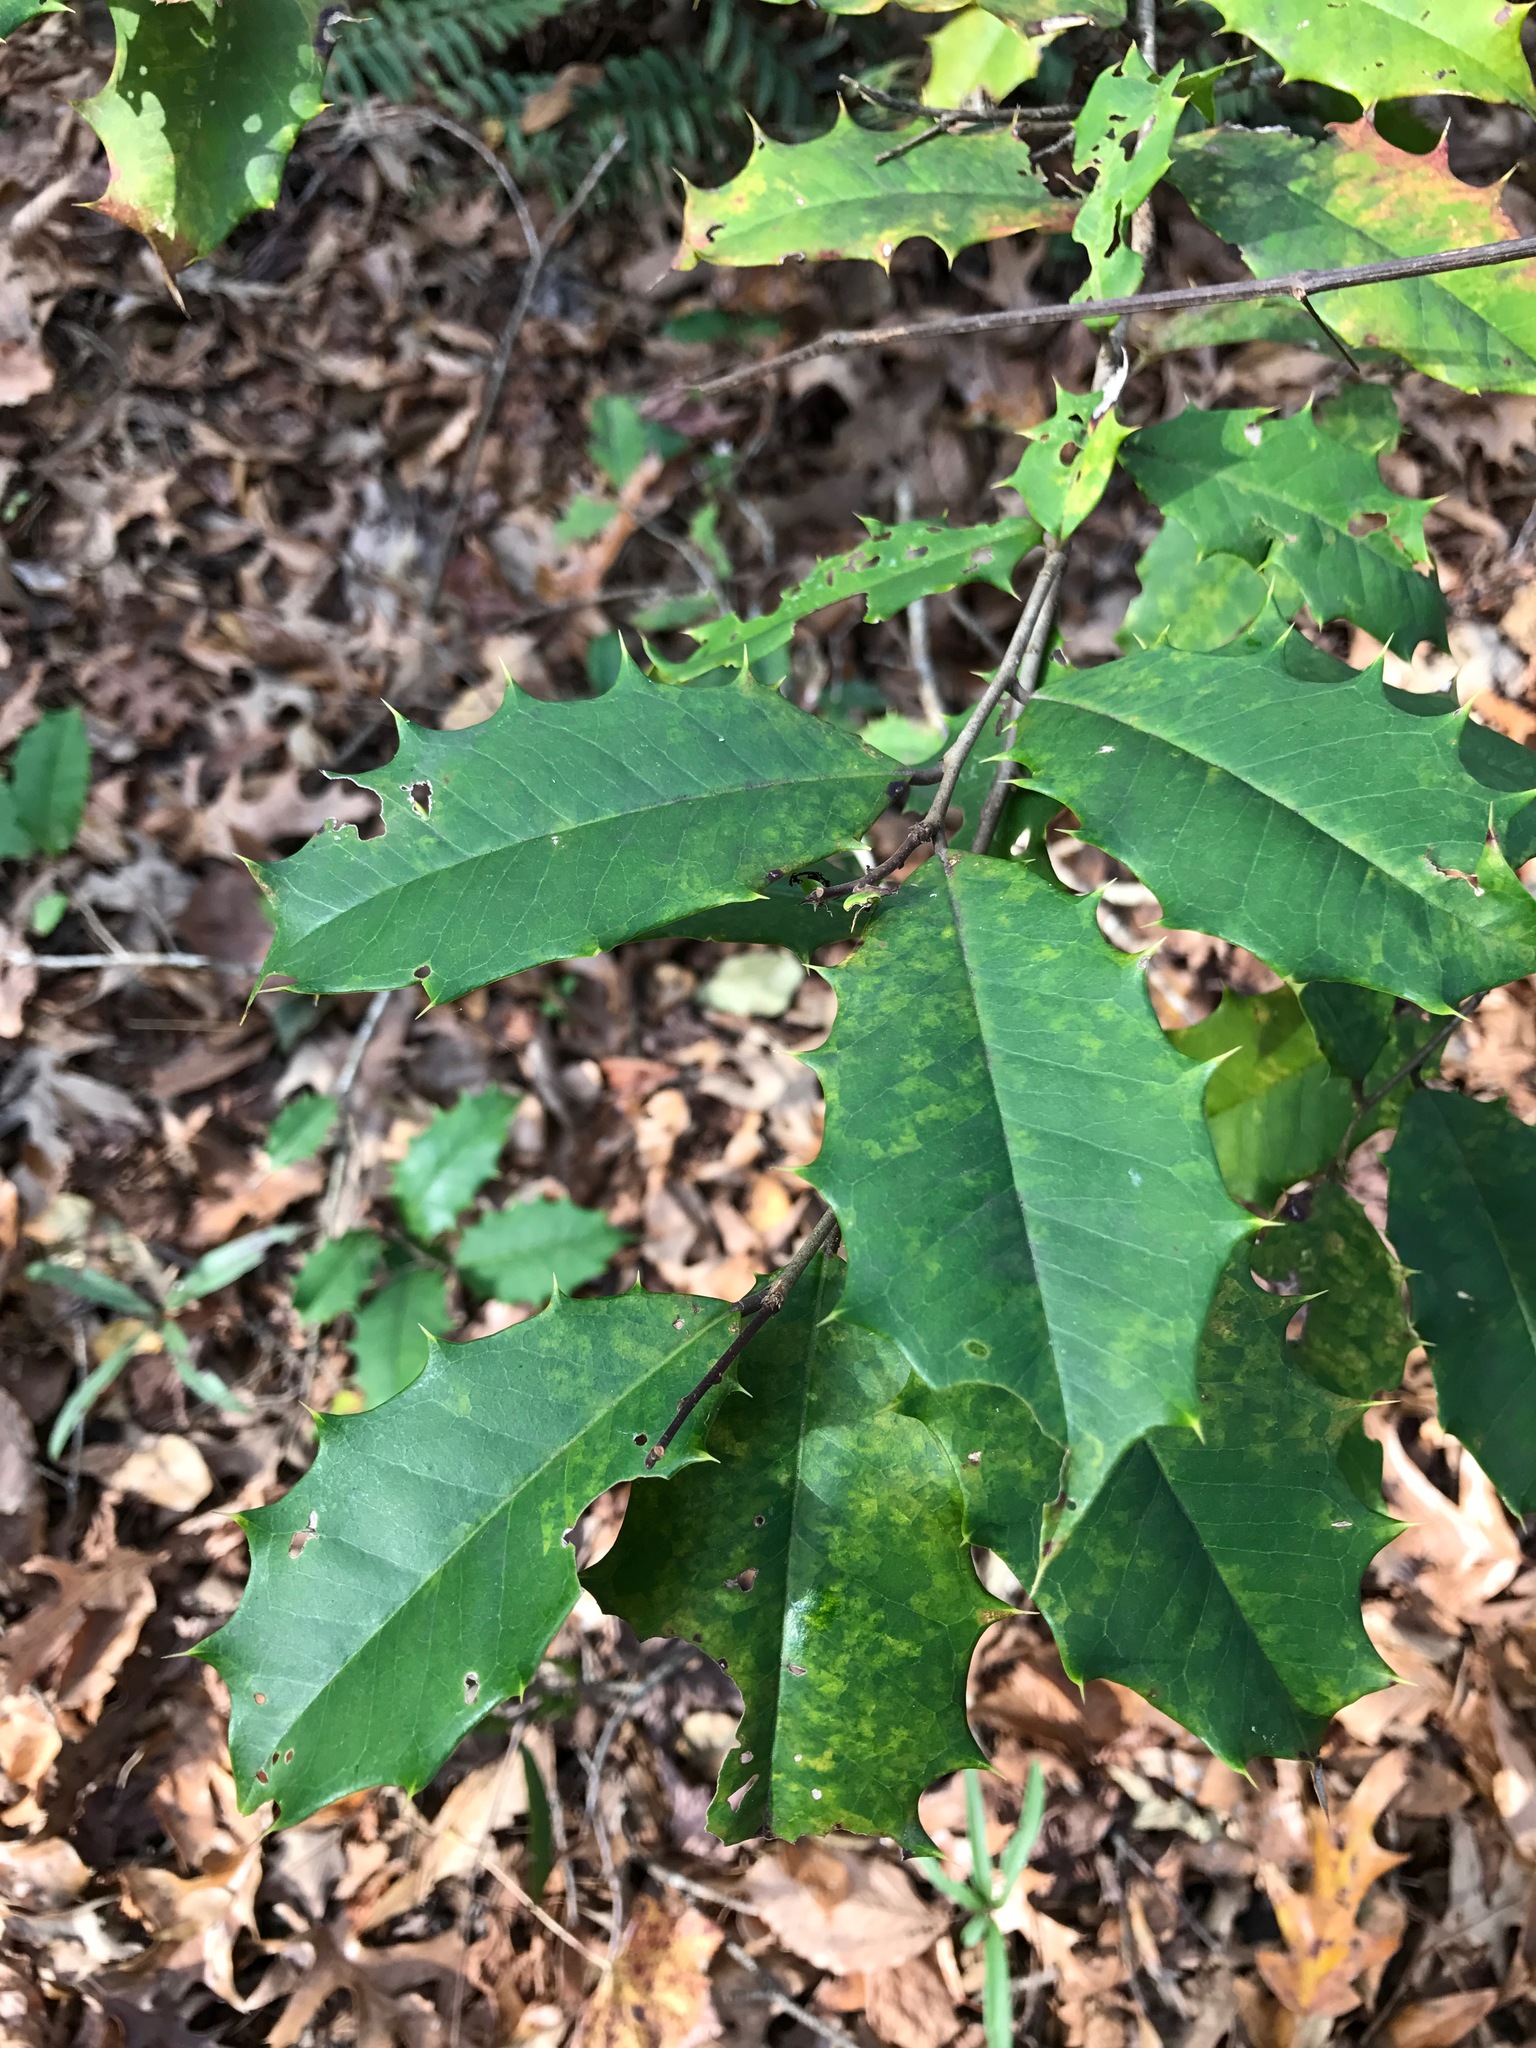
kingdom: Plantae
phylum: Tracheophyta
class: Magnoliopsida
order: Aquifoliales
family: Aquifoliaceae
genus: Ilex
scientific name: Ilex opaca
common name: American holly
